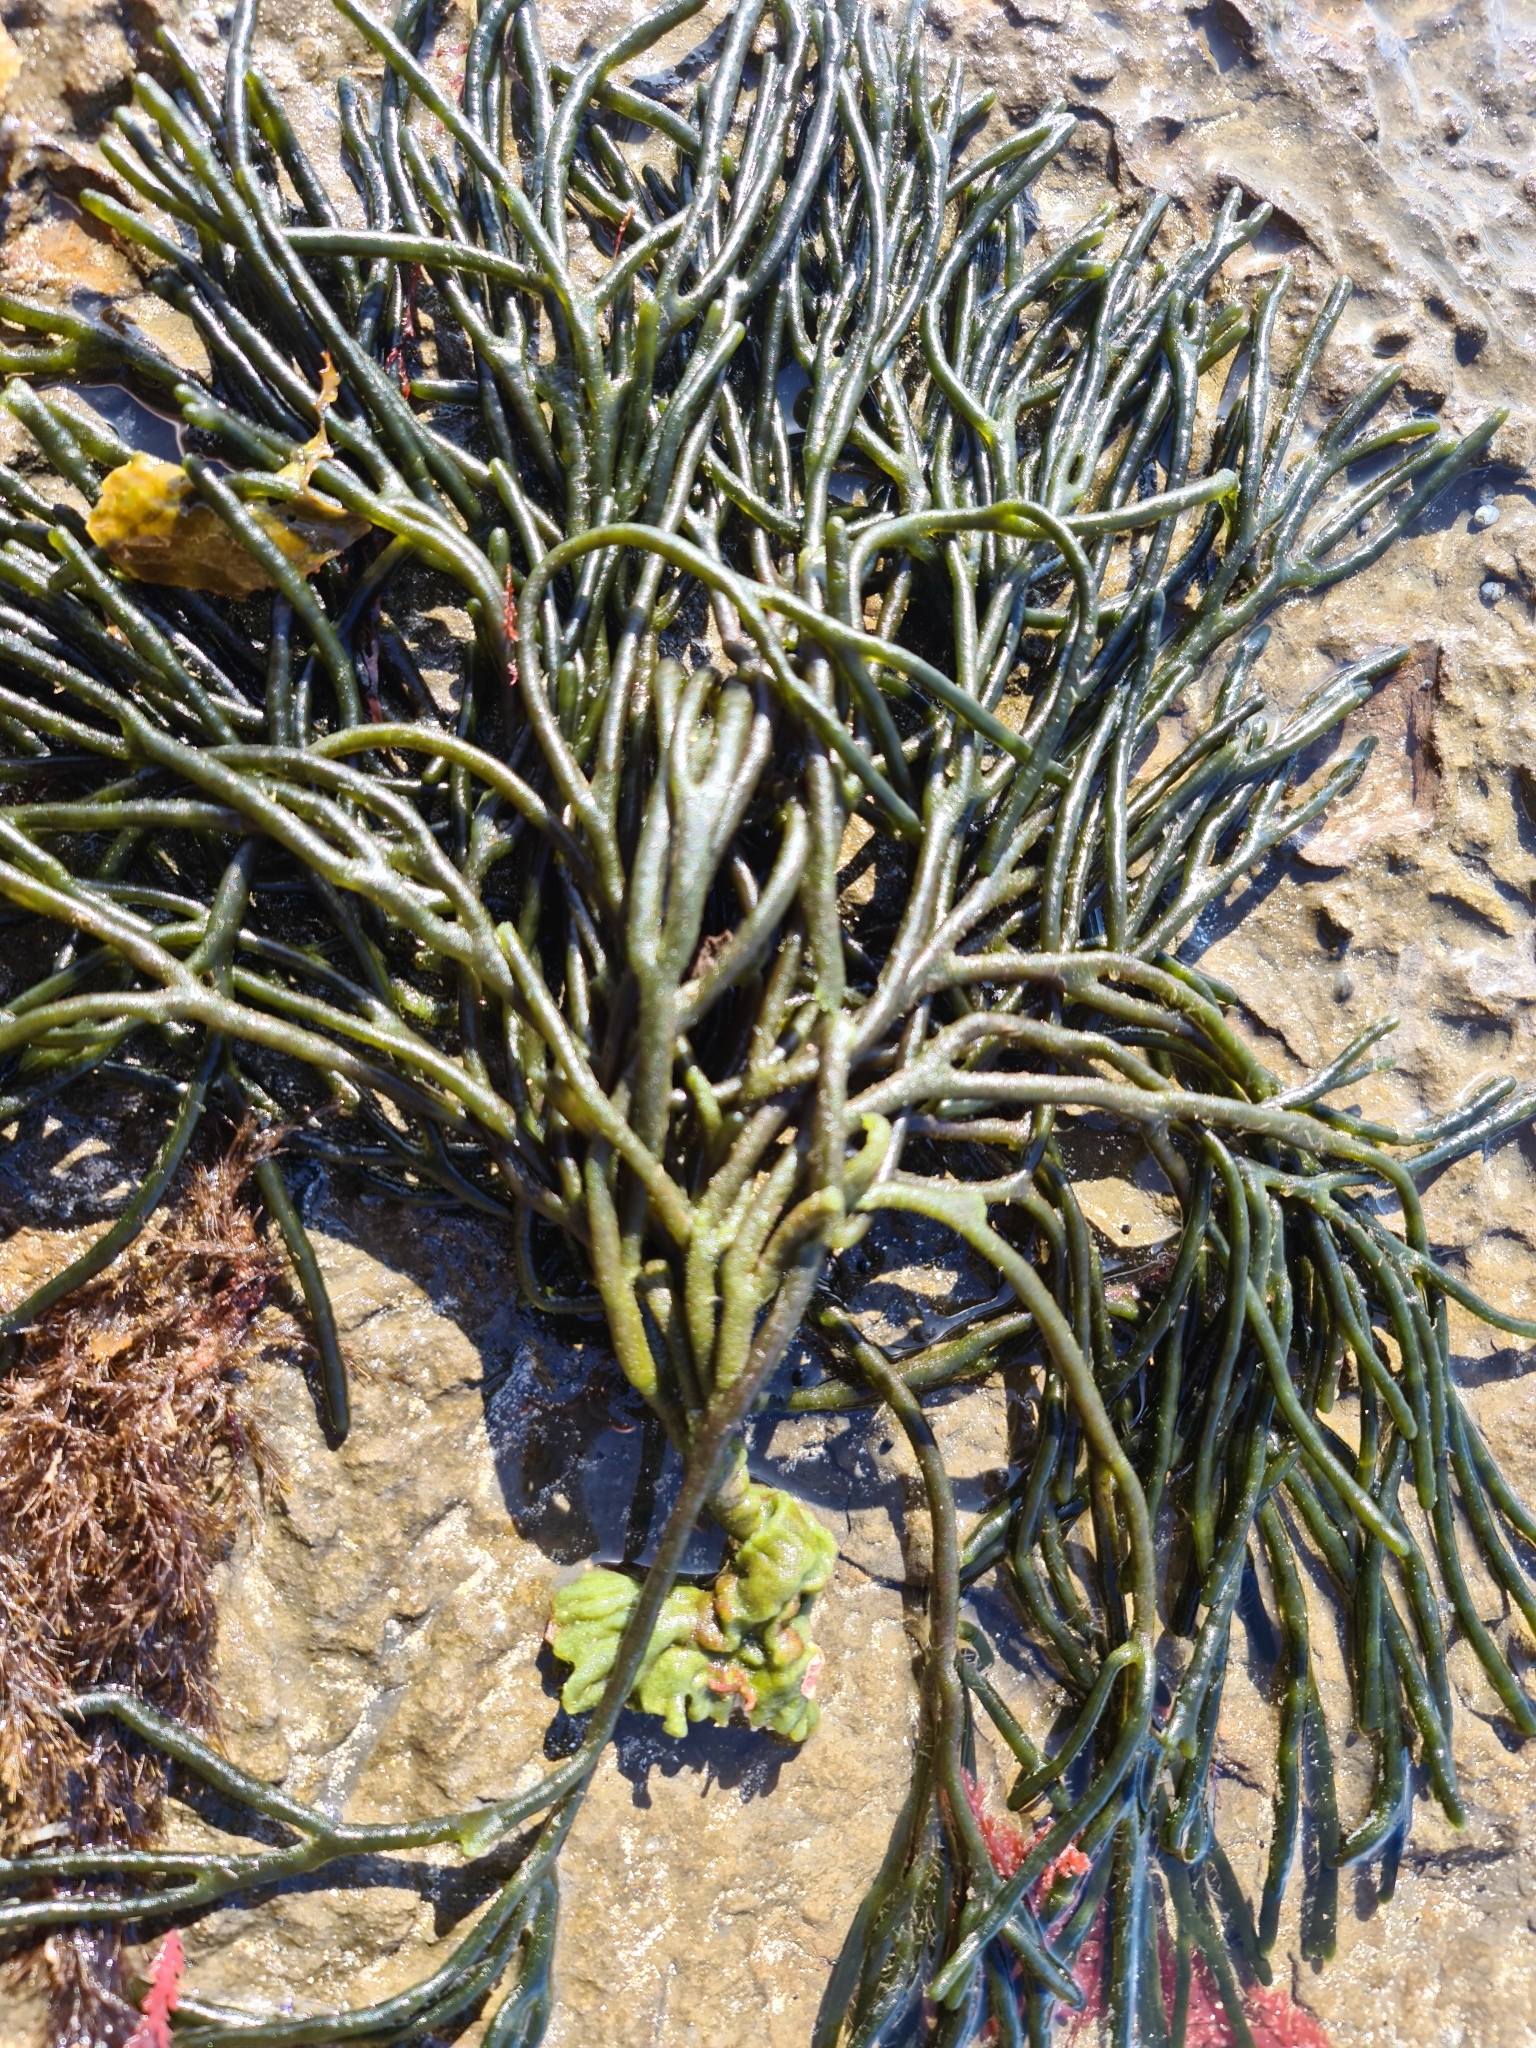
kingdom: Plantae
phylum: Chlorophyta
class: Ulvophyceae
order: Bryopsidales
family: Codiaceae
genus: Codium
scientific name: Codium fragile
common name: Dead man's fingers
